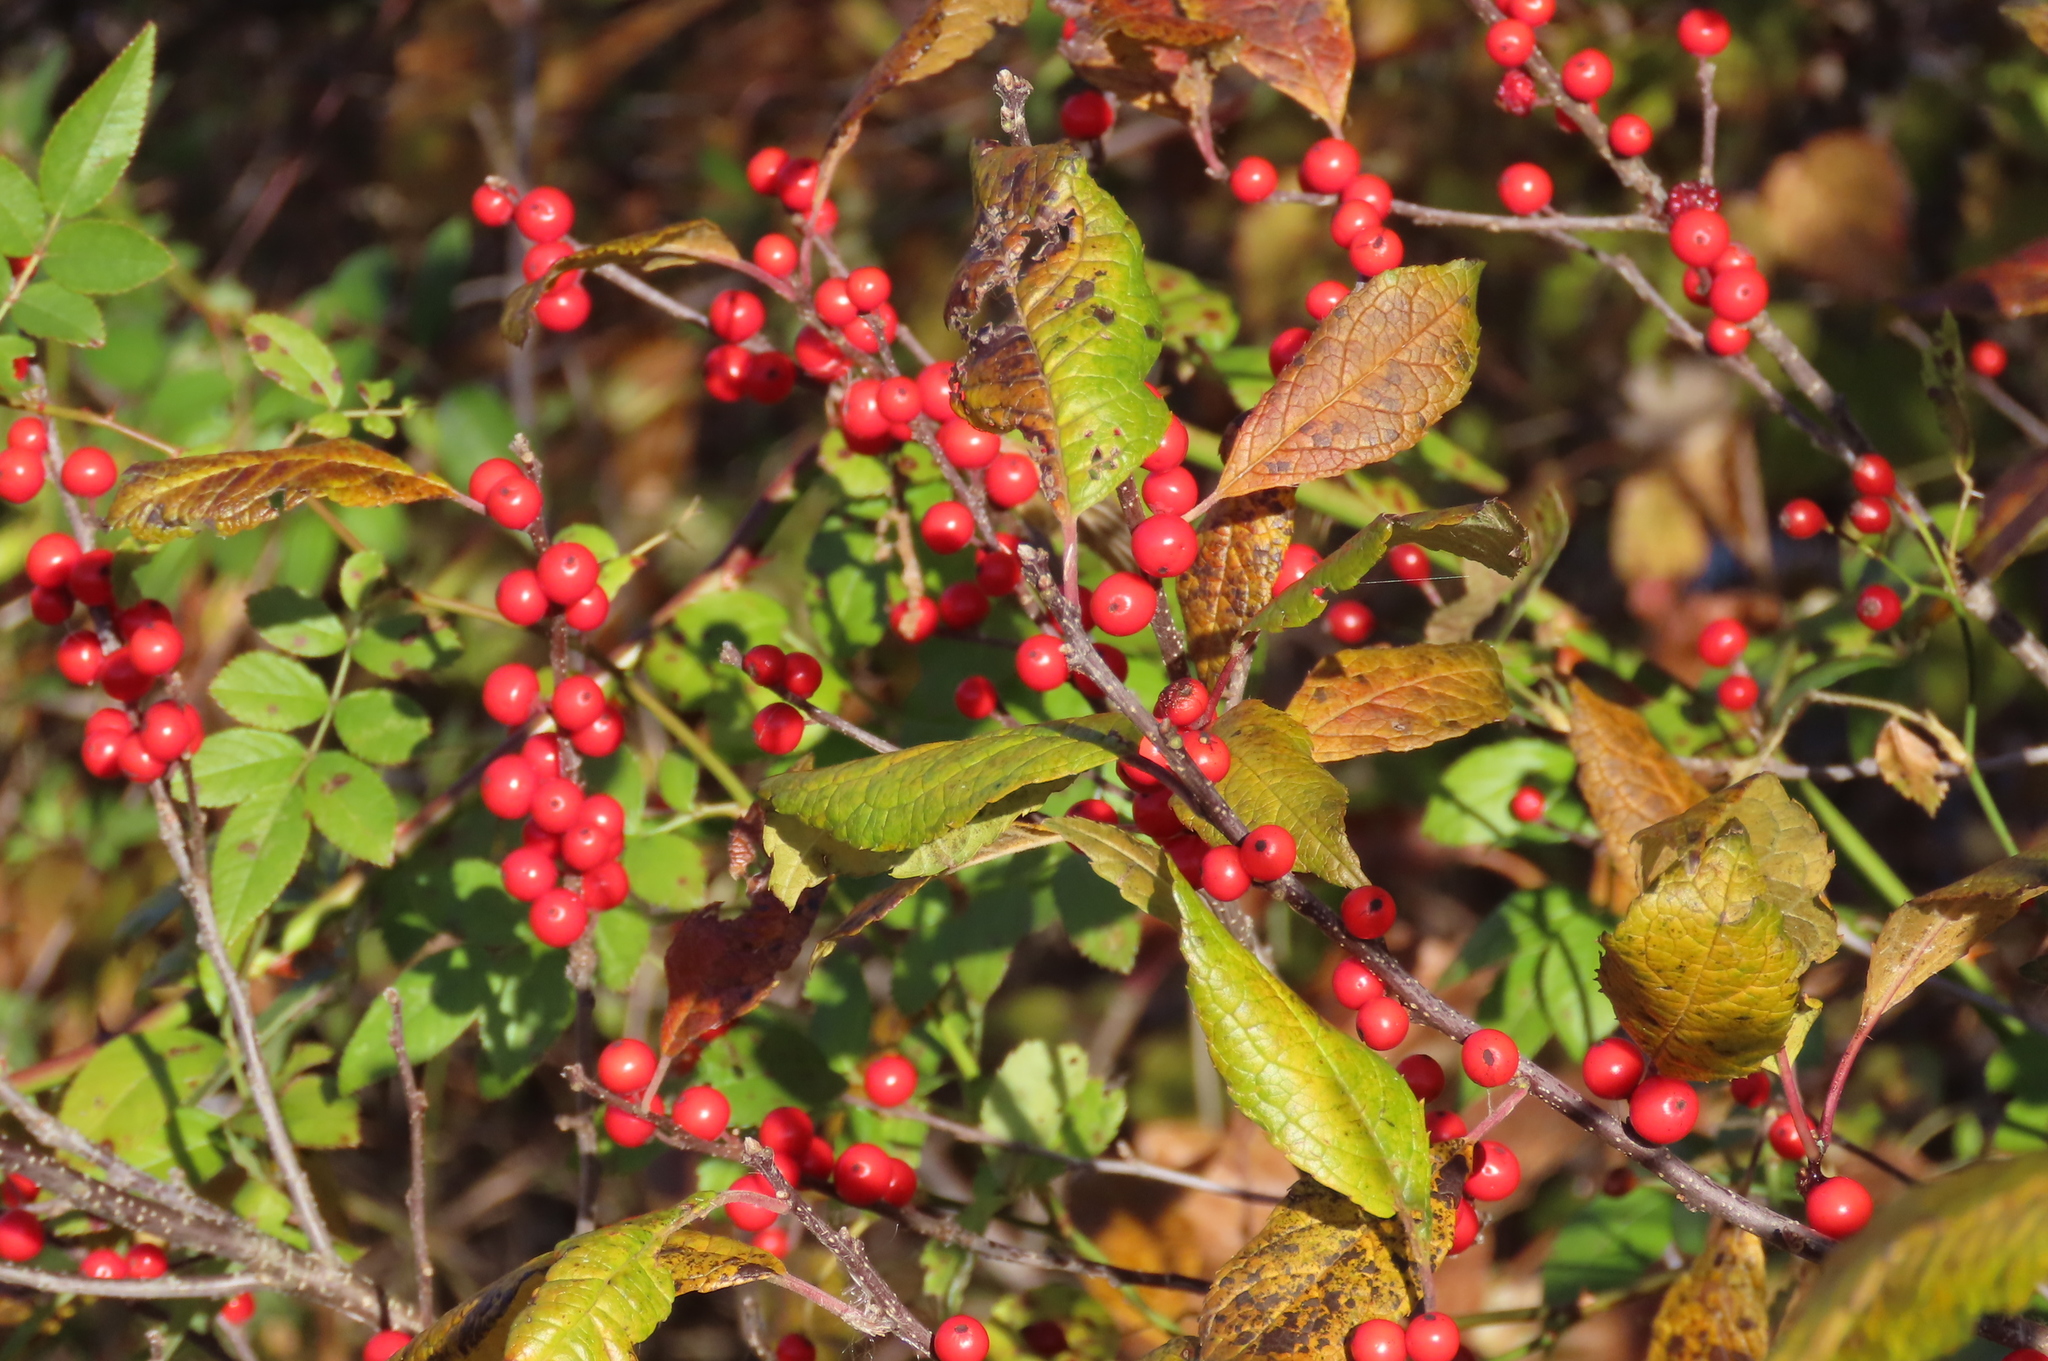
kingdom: Plantae
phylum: Tracheophyta
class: Magnoliopsida
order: Aquifoliales
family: Aquifoliaceae
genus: Ilex
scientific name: Ilex verticillata
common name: Virginia winterberry
